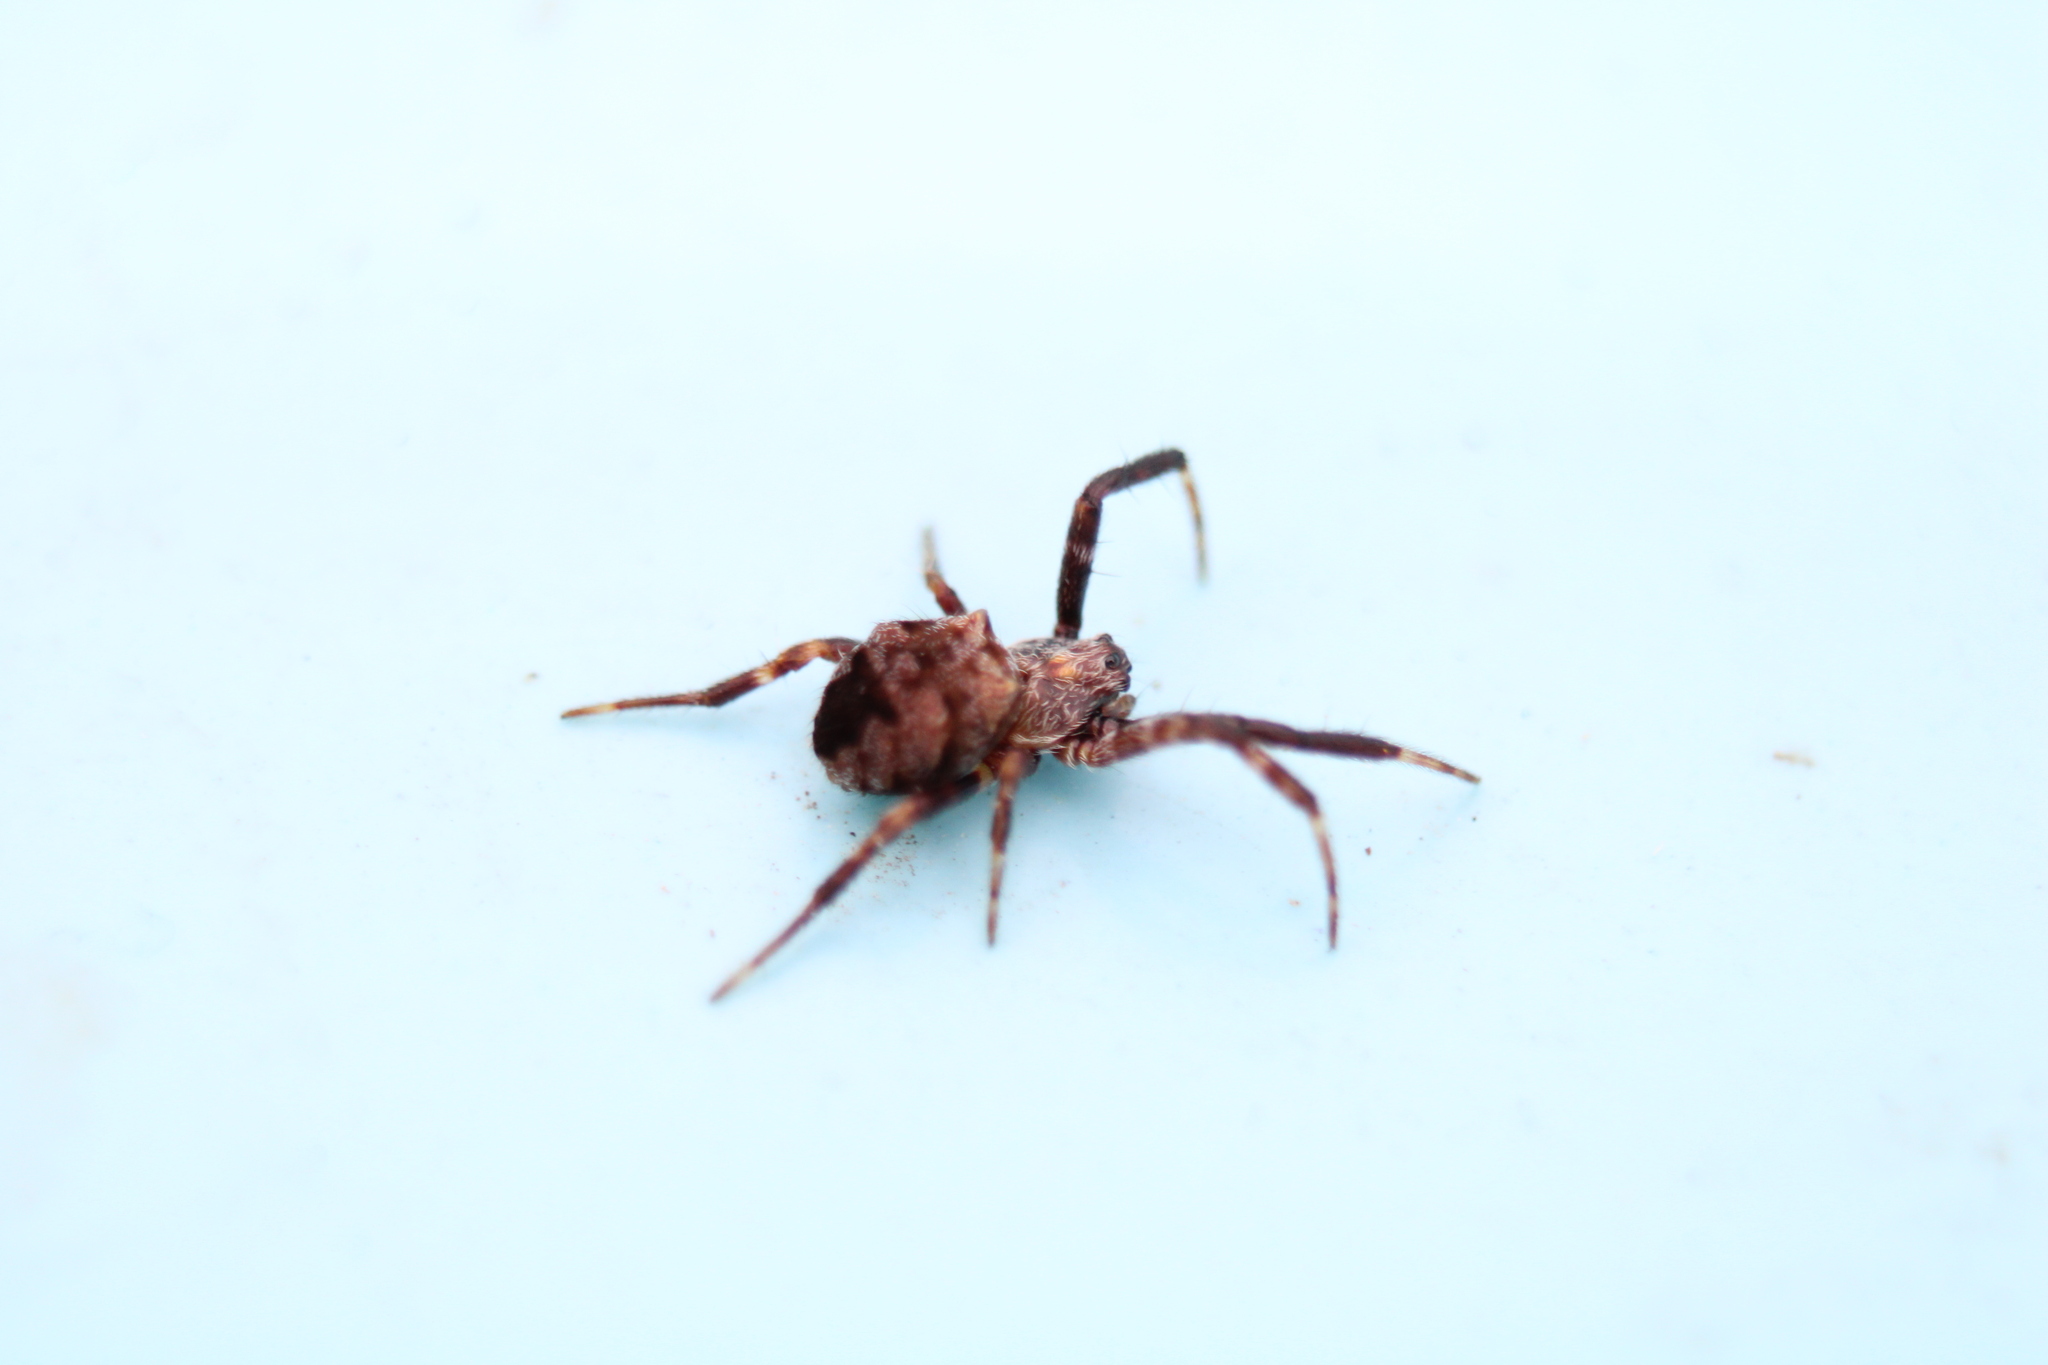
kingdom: Animalia
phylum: Arthropoda
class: Arachnida
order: Araneae
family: Araneidae
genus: Gea
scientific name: Gea heptagon
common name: Orb weavers
